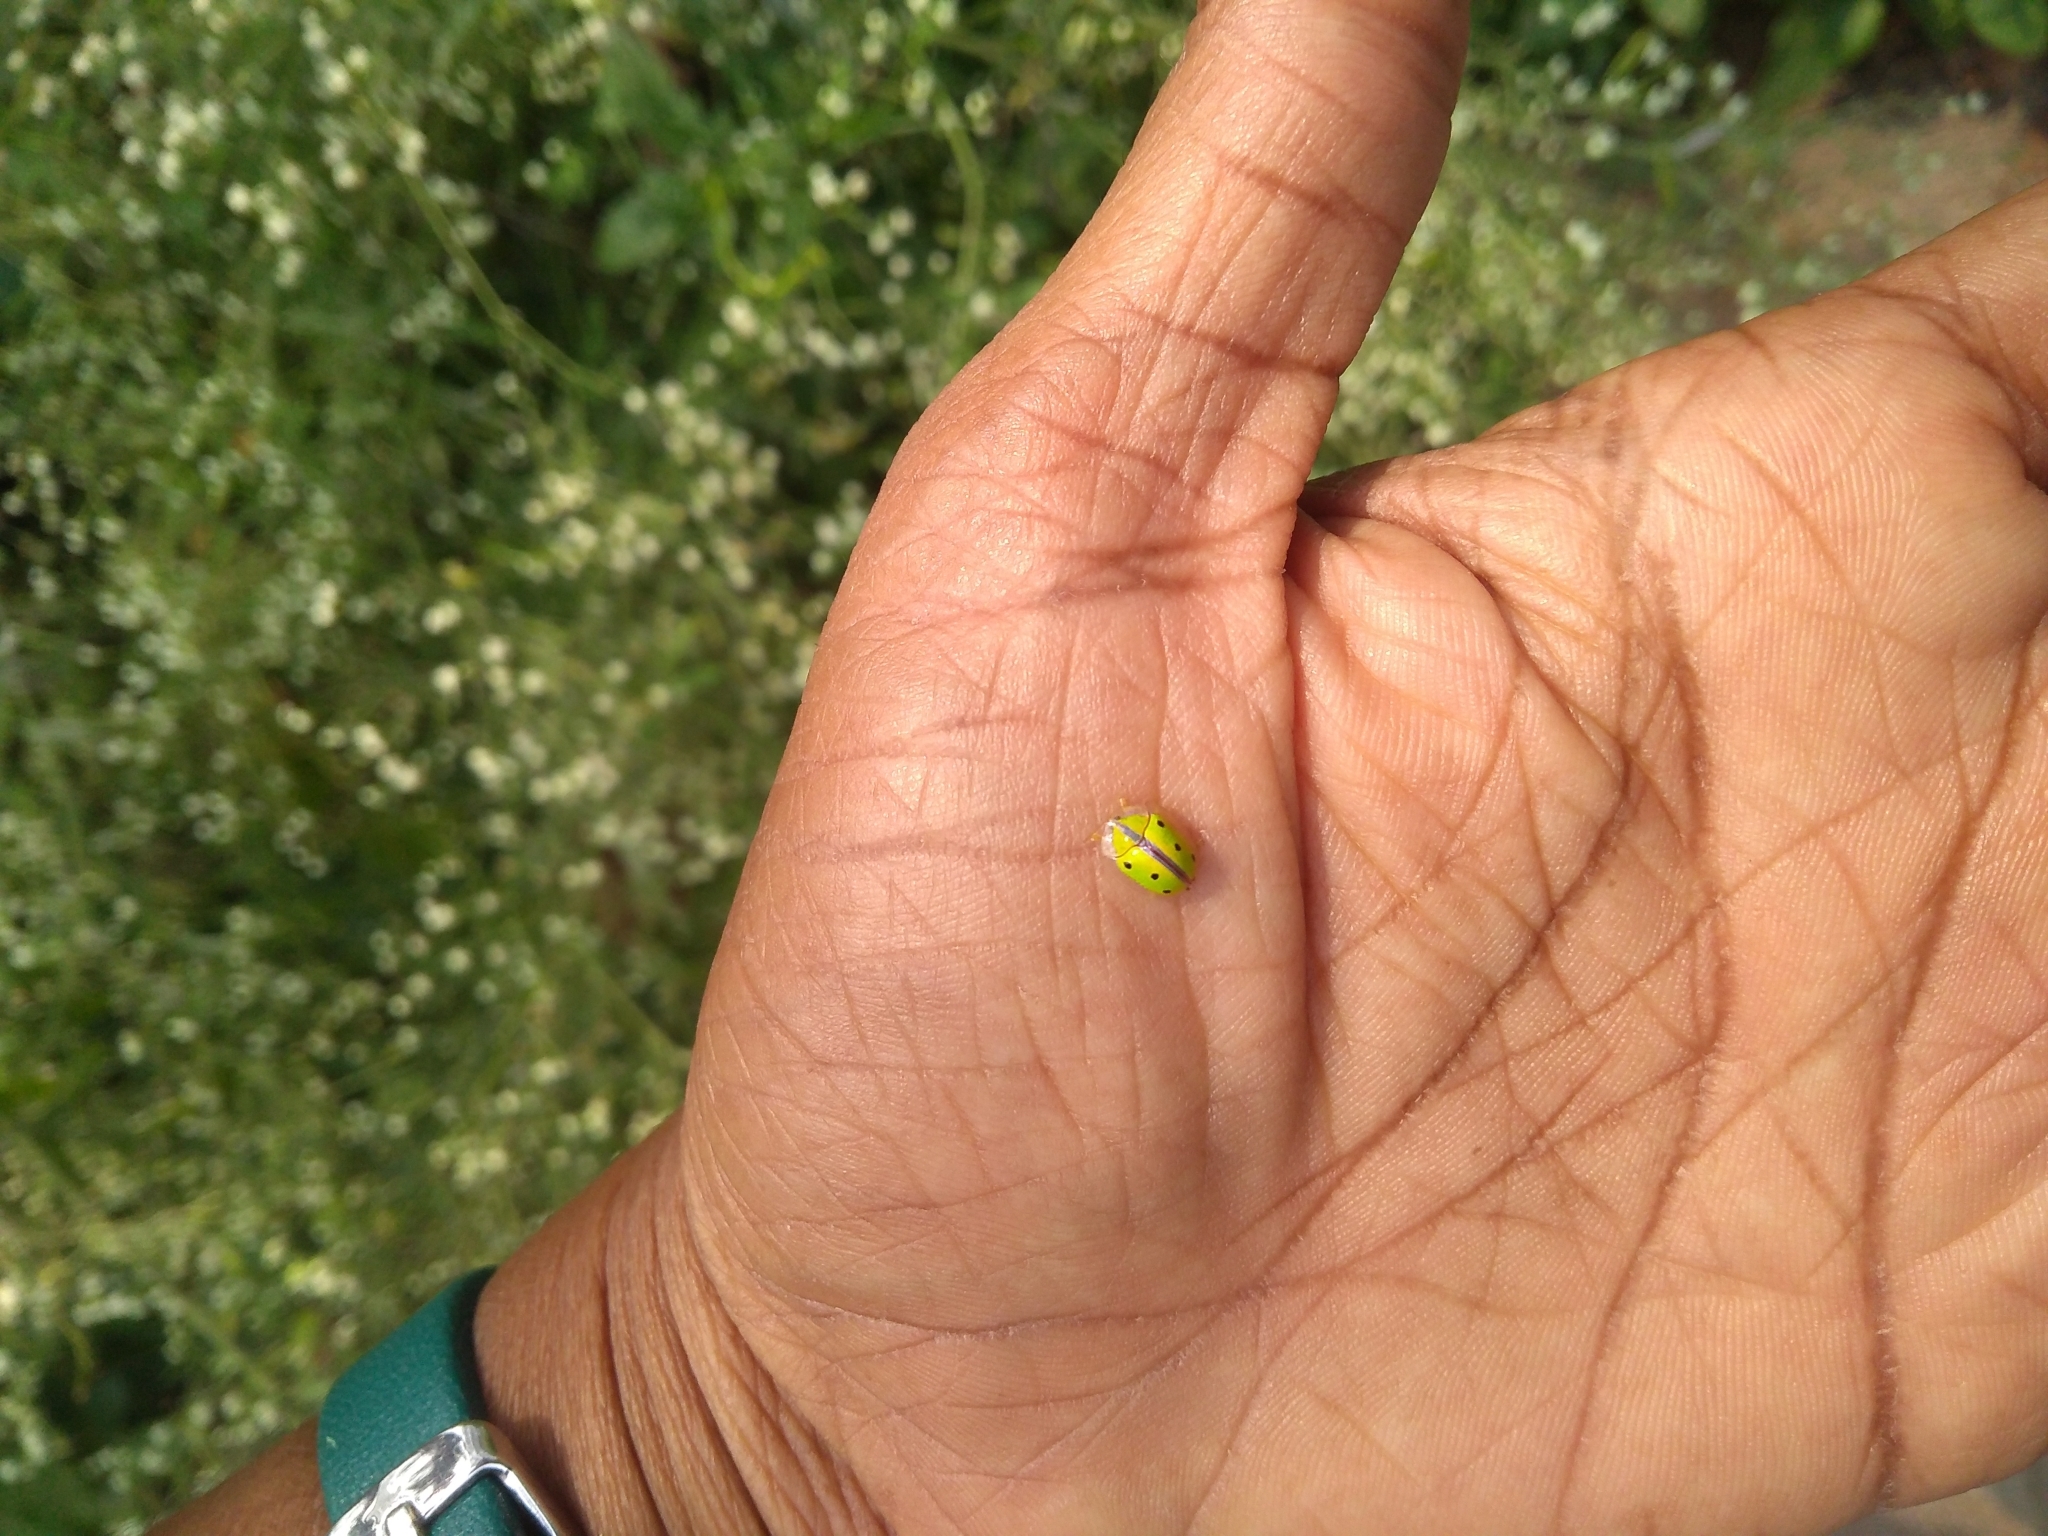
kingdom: Animalia
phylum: Arthropoda
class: Insecta
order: Coleoptera
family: Chrysomelidae
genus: Chiridopsis
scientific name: Chiridopsis bipunctata
